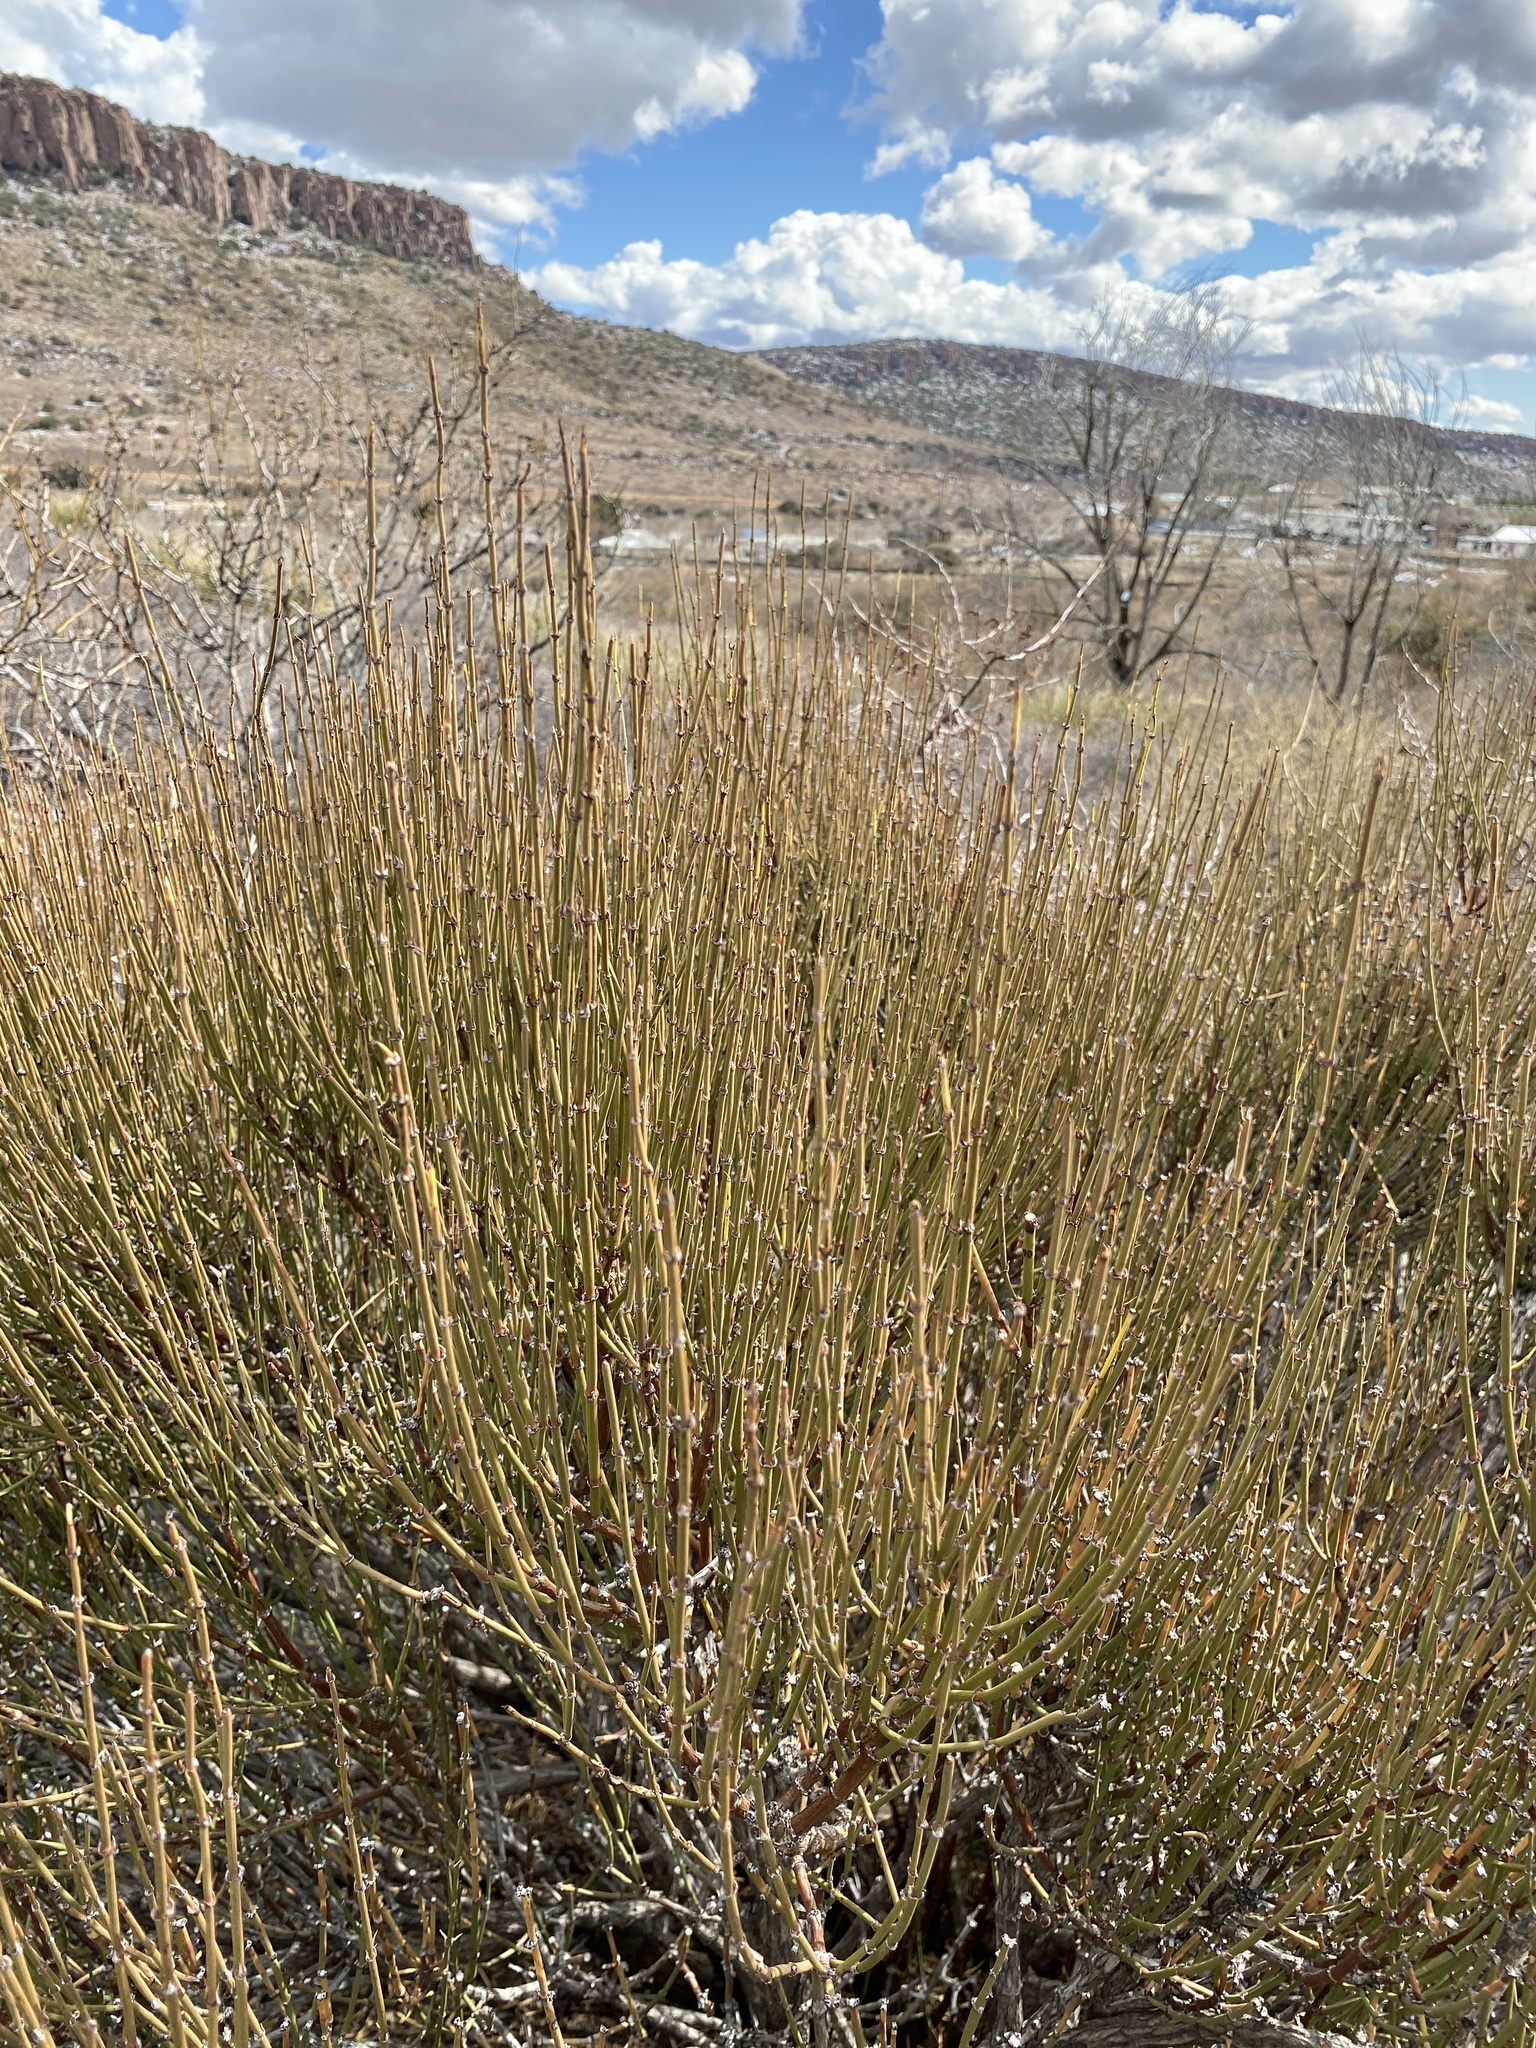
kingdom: Plantae
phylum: Tracheophyta
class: Gnetopsida
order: Ephedrales
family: Ephedraceae
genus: Ephedra
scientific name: Ephedra trifurca
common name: Mexican-tea
